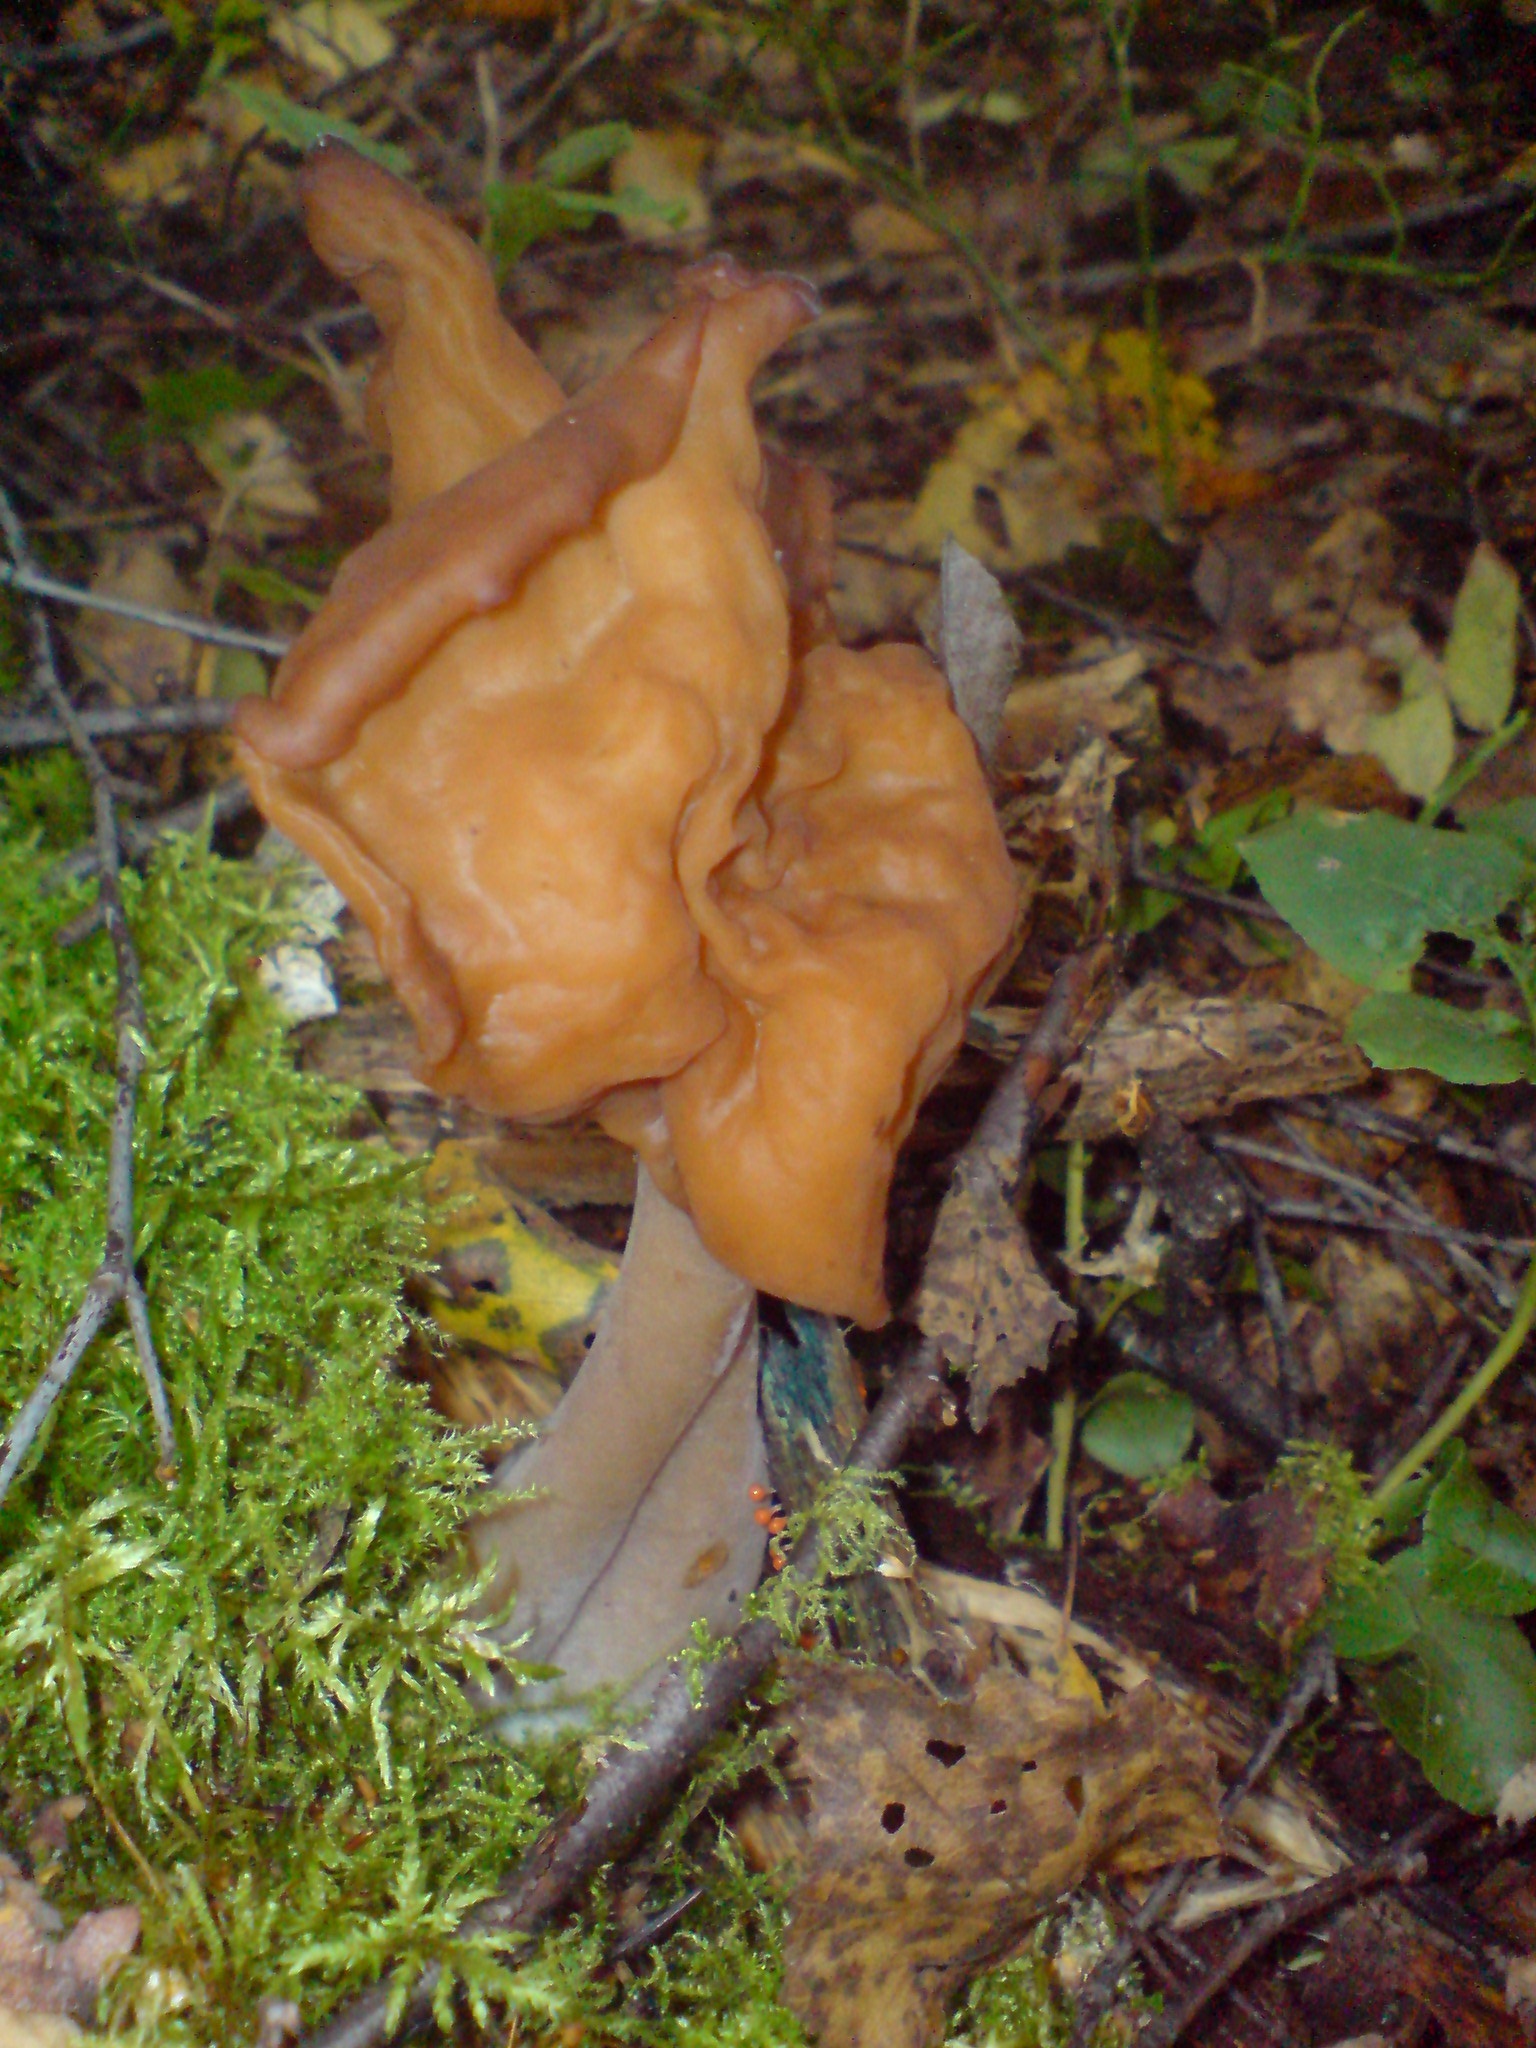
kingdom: Fungi
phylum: Ascomycota
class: Pezizomycetes
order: Pezizales
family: Discinaceae
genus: Gyromitra
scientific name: Gyromitra infula
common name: Pouched false morel
